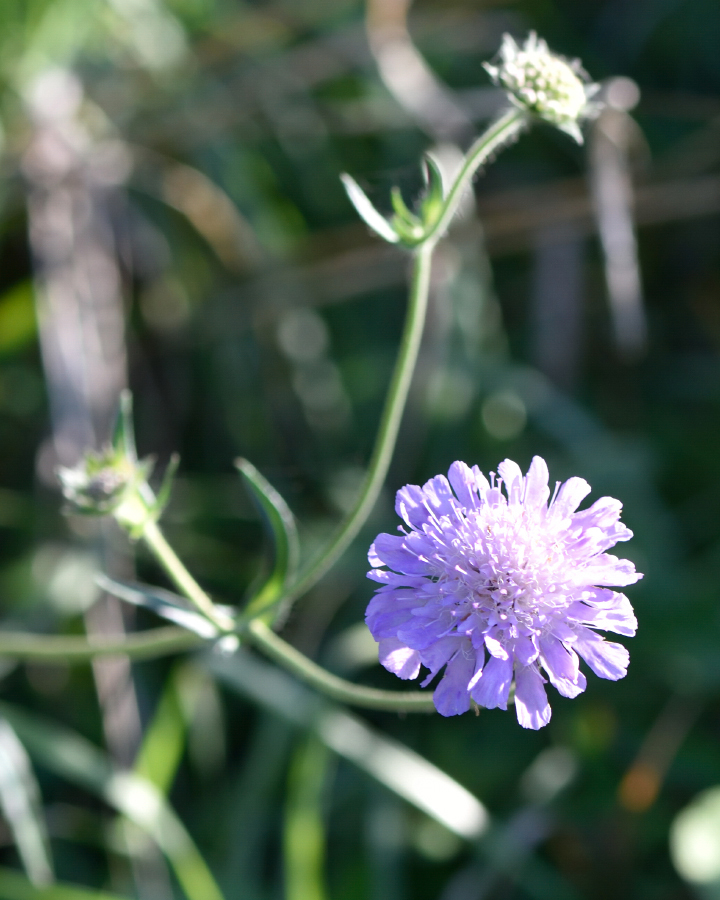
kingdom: Plantae
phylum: Tracheophyta
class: Magnoliopsida
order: Dipsacales
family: Caprifoliaceae
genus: Knautia
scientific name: Knautia arvensis
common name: Field scabiosa
